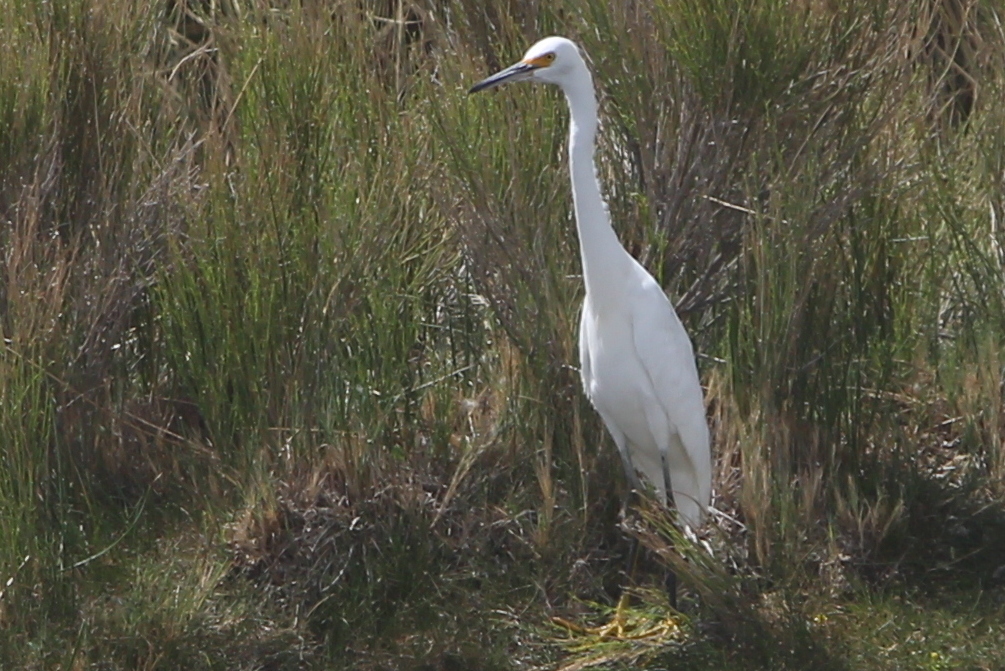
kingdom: Animalia
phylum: Chordata
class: Aves
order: Pelecaniformes
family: Ardeidae
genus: Egretta
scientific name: Egretta thula
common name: Snowy egret
